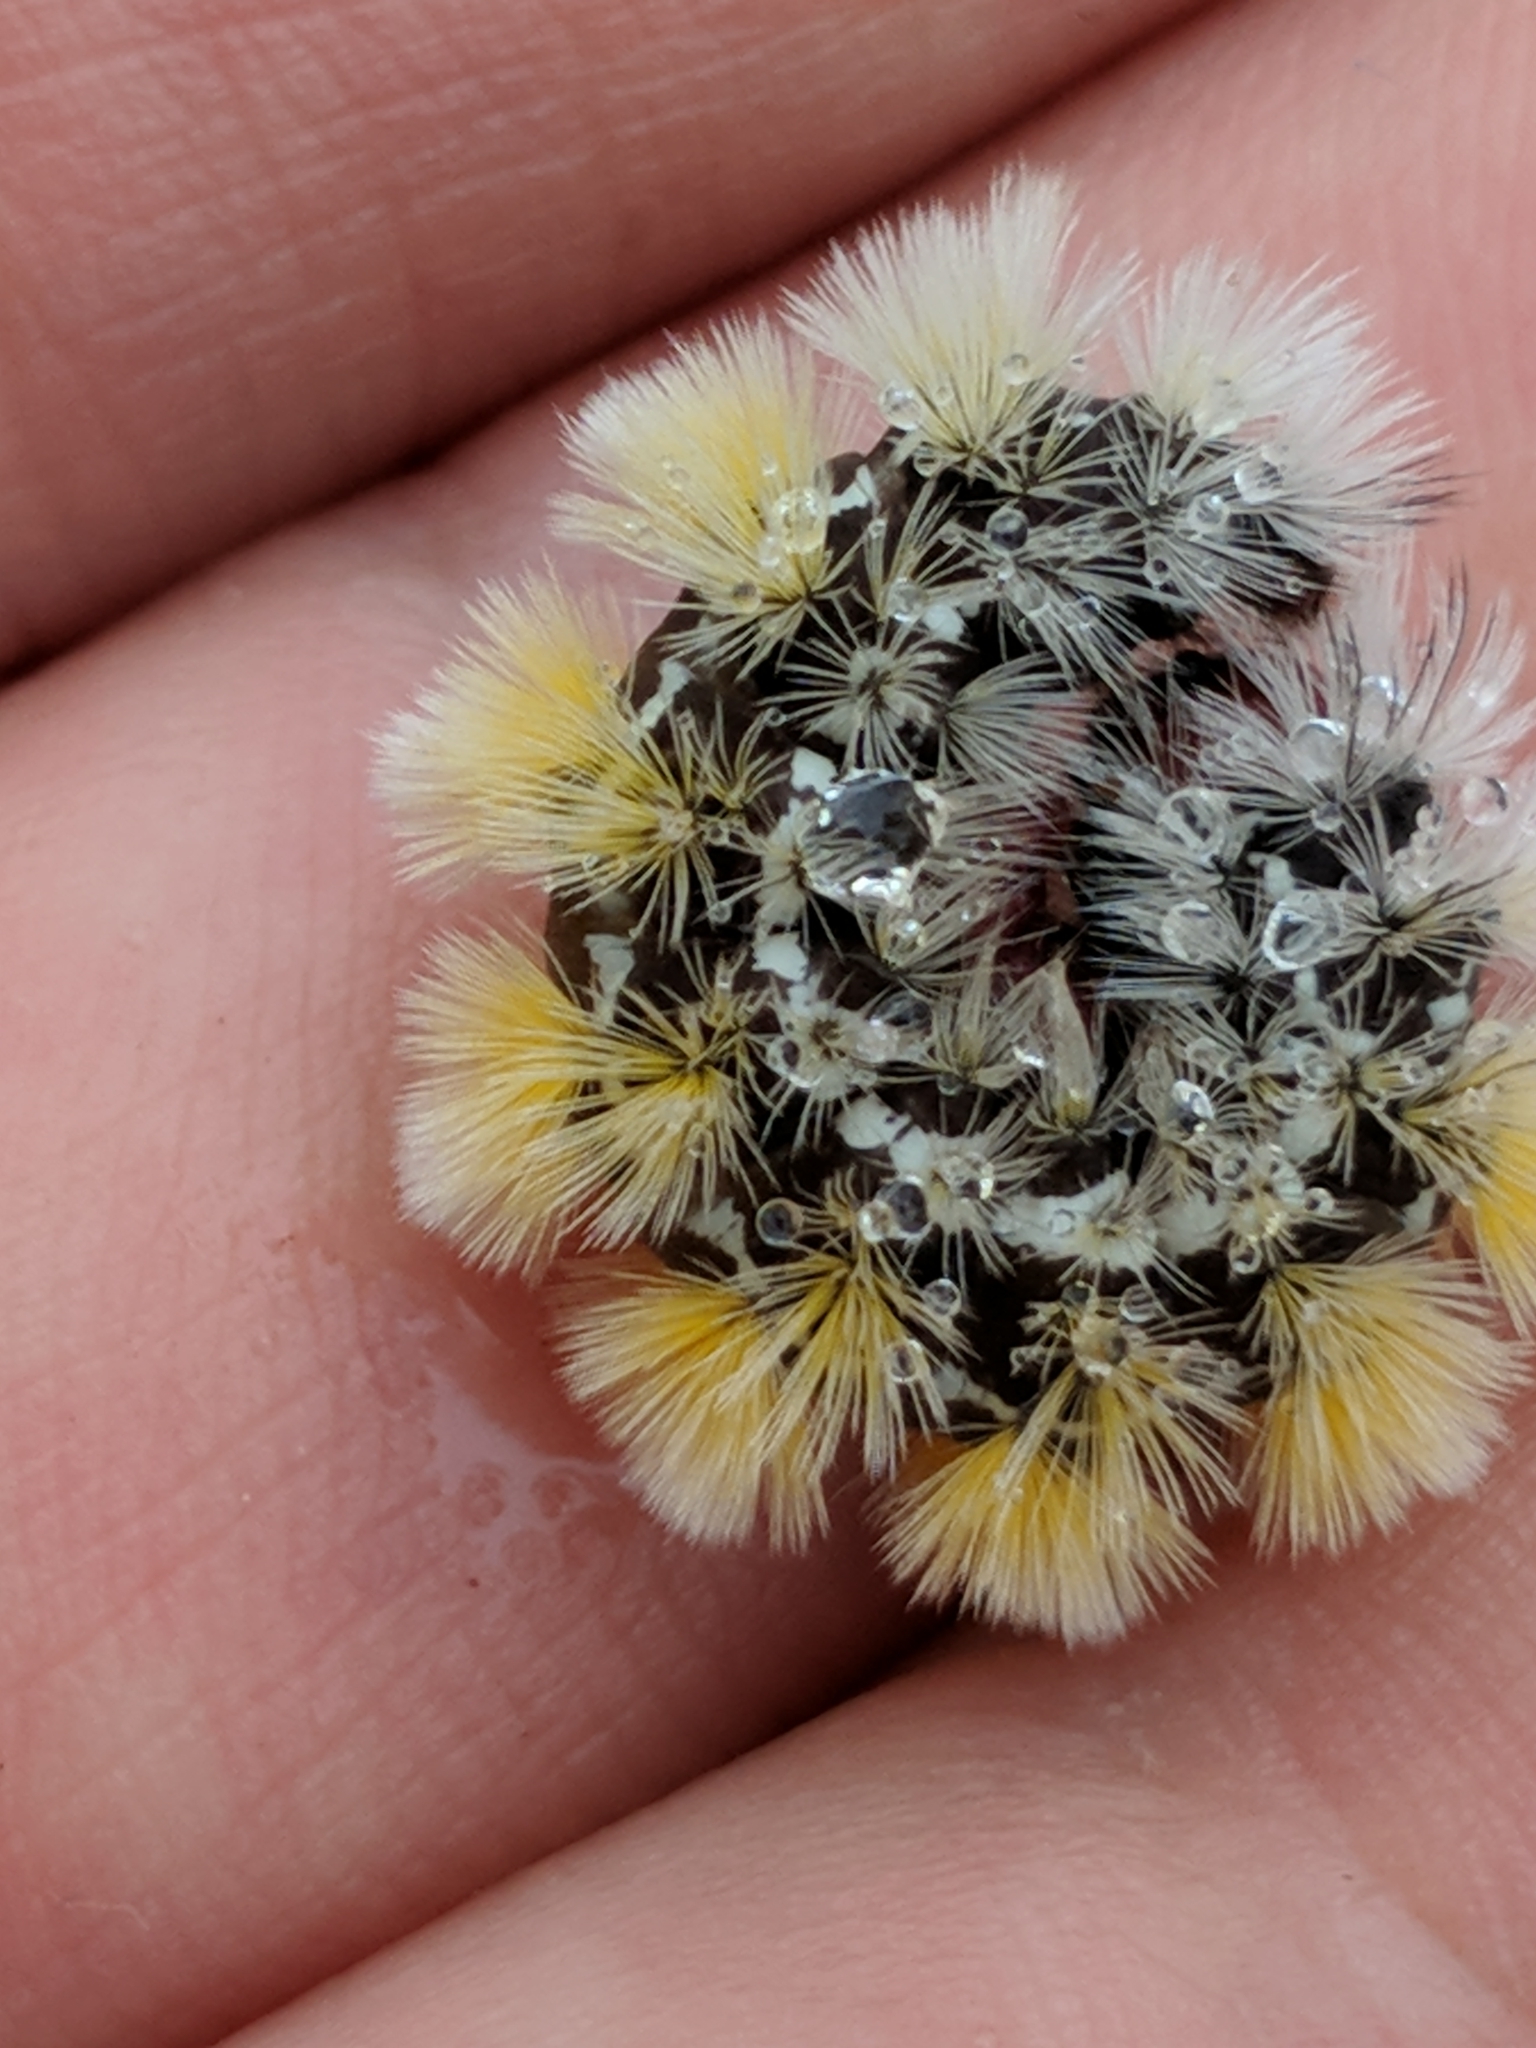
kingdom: Animalia
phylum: Arthropoda
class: Insecta
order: Lepidoptera
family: Erebidae
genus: Ctenucha
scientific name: Ctenucha virginica
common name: Virginia ctenucha moth
